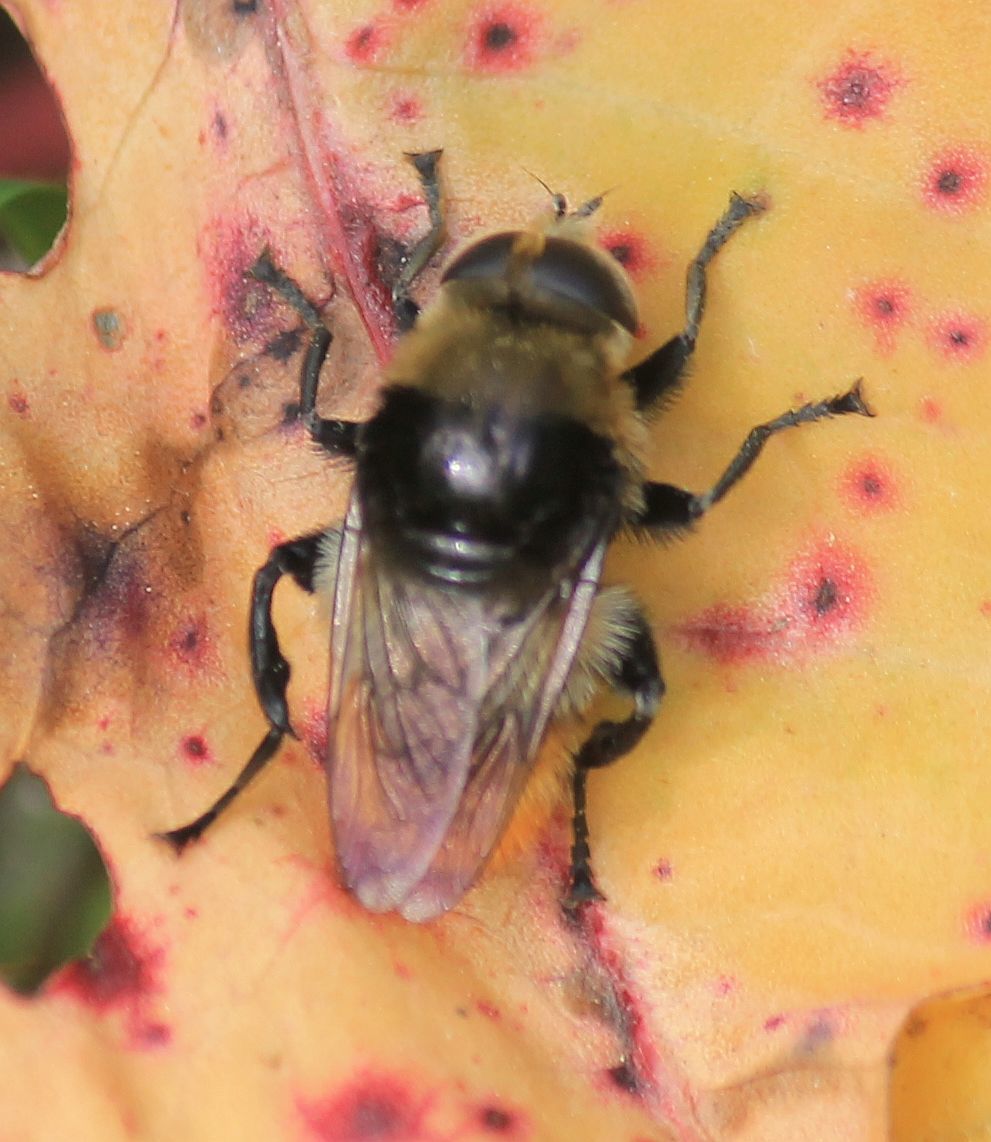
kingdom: Animalia
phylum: Arthropoda
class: Insecta
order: Diptera
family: Syrphidae
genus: Merodon
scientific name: Merodon equestris
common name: Greater bulb-fly
